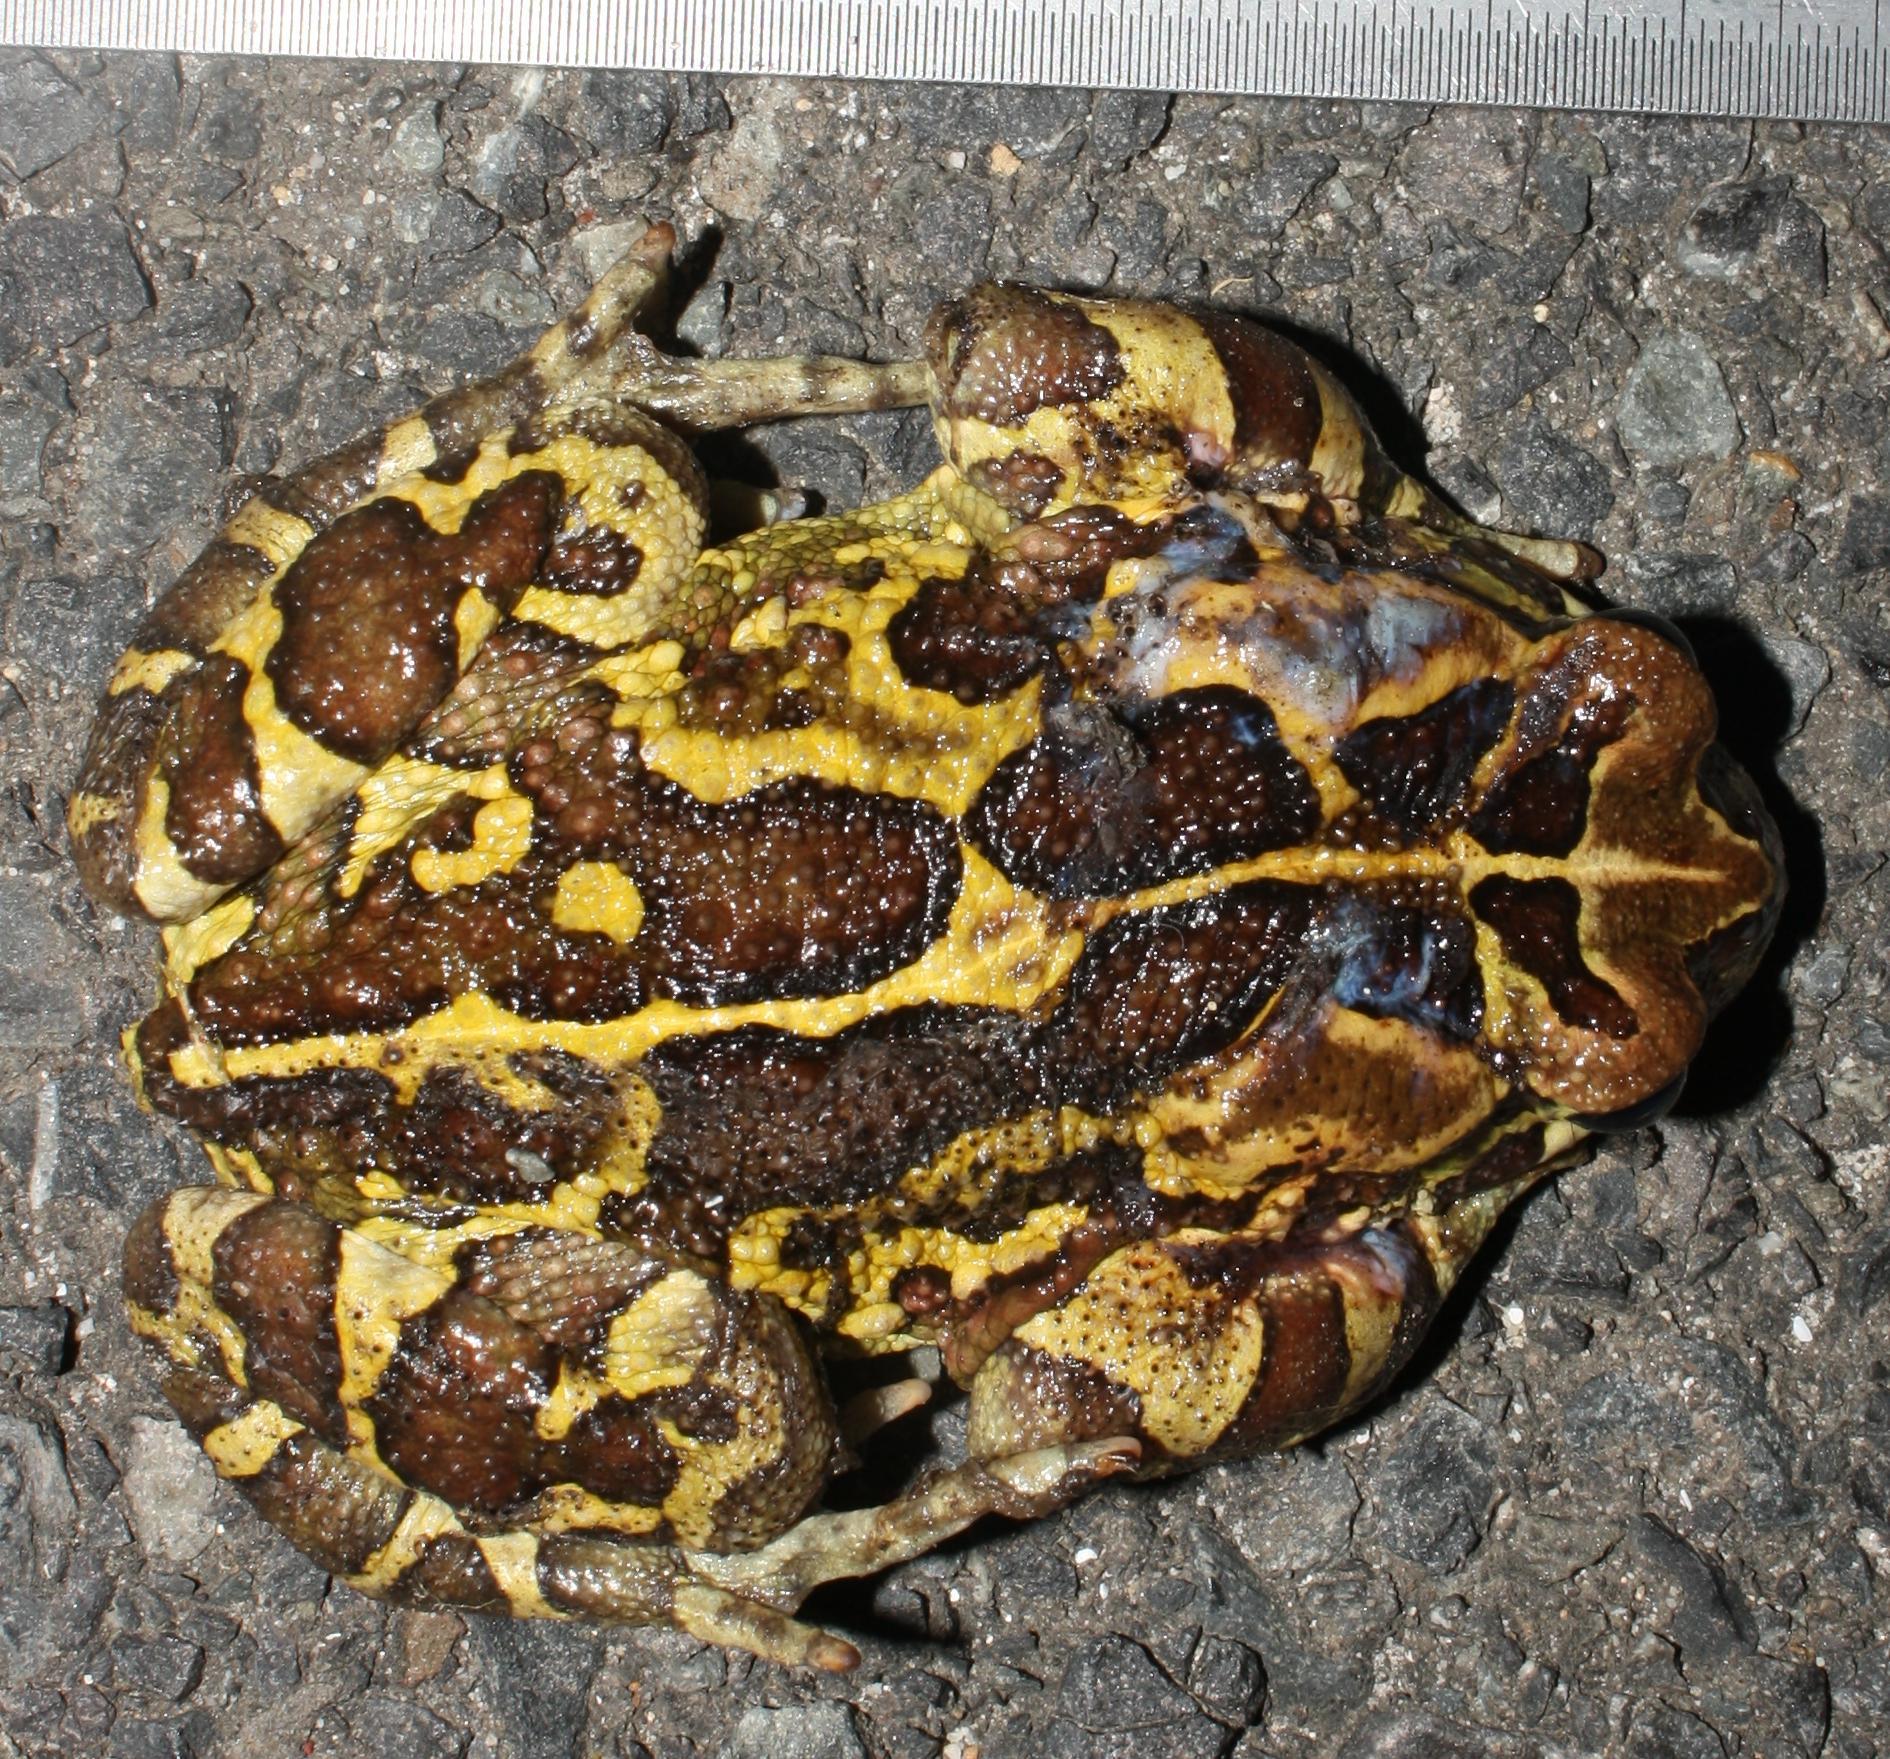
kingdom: Animalia
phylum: Chordata
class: Amphibia
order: Anura
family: Bufonidae
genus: Sclerophrys
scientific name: Sclerophrys pantherina
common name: Panther toad
